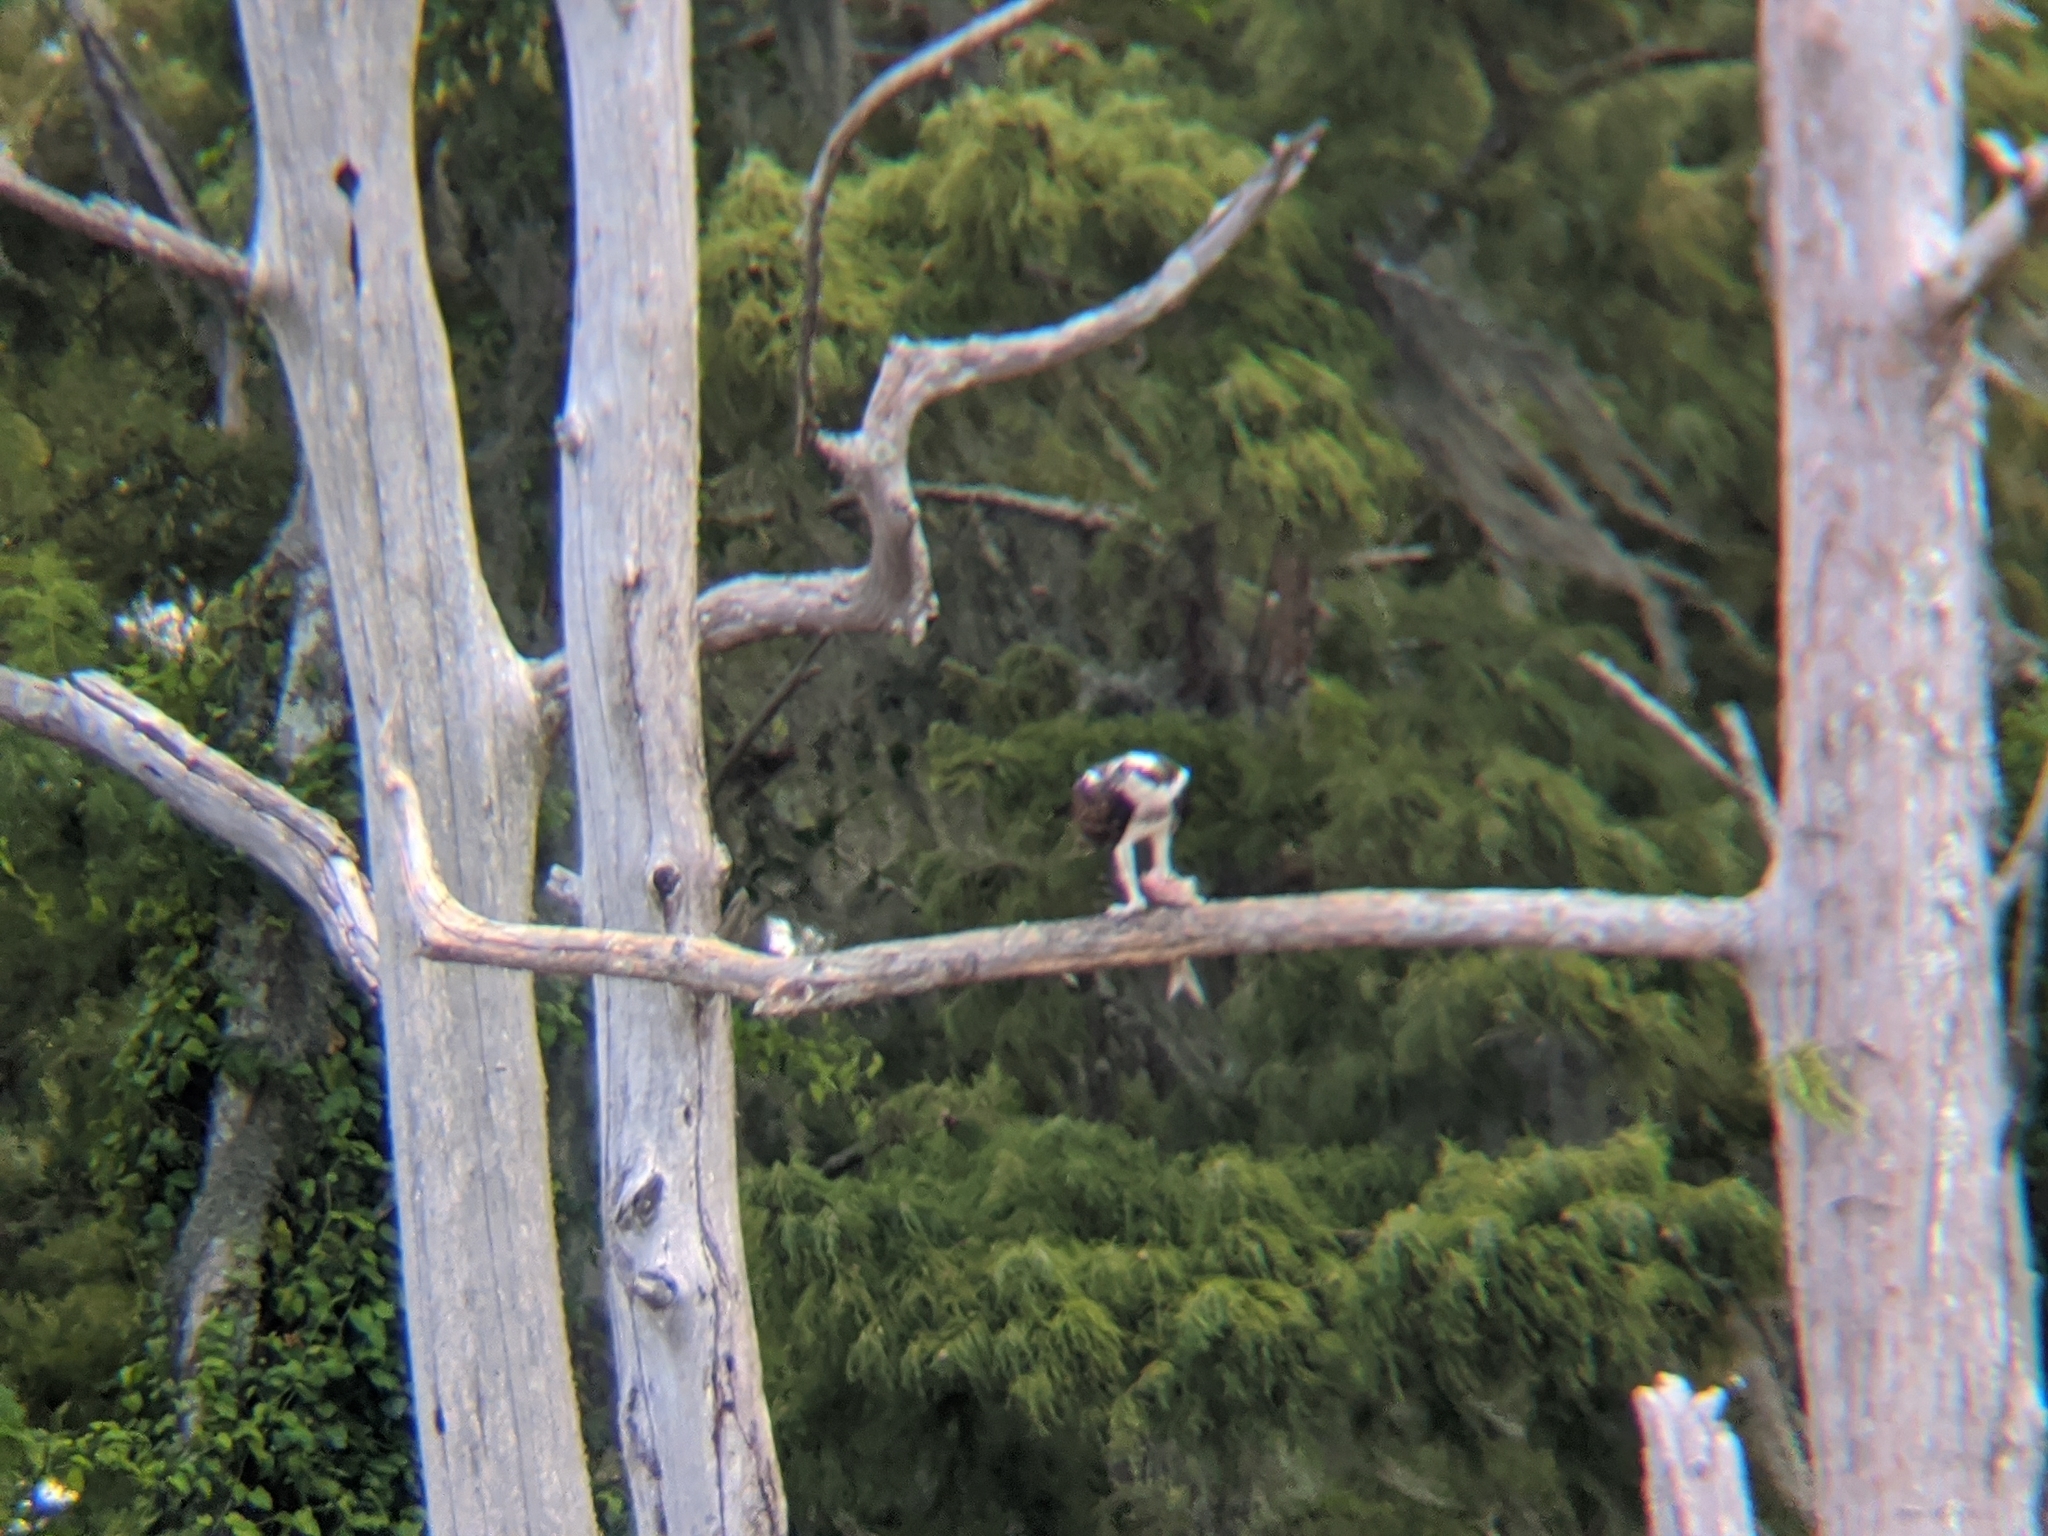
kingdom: Animalia
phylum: Chordata
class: Aves
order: Accipitriformes
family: Pandionidae
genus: Pandion
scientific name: Pandion haliaetus
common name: Osprey
